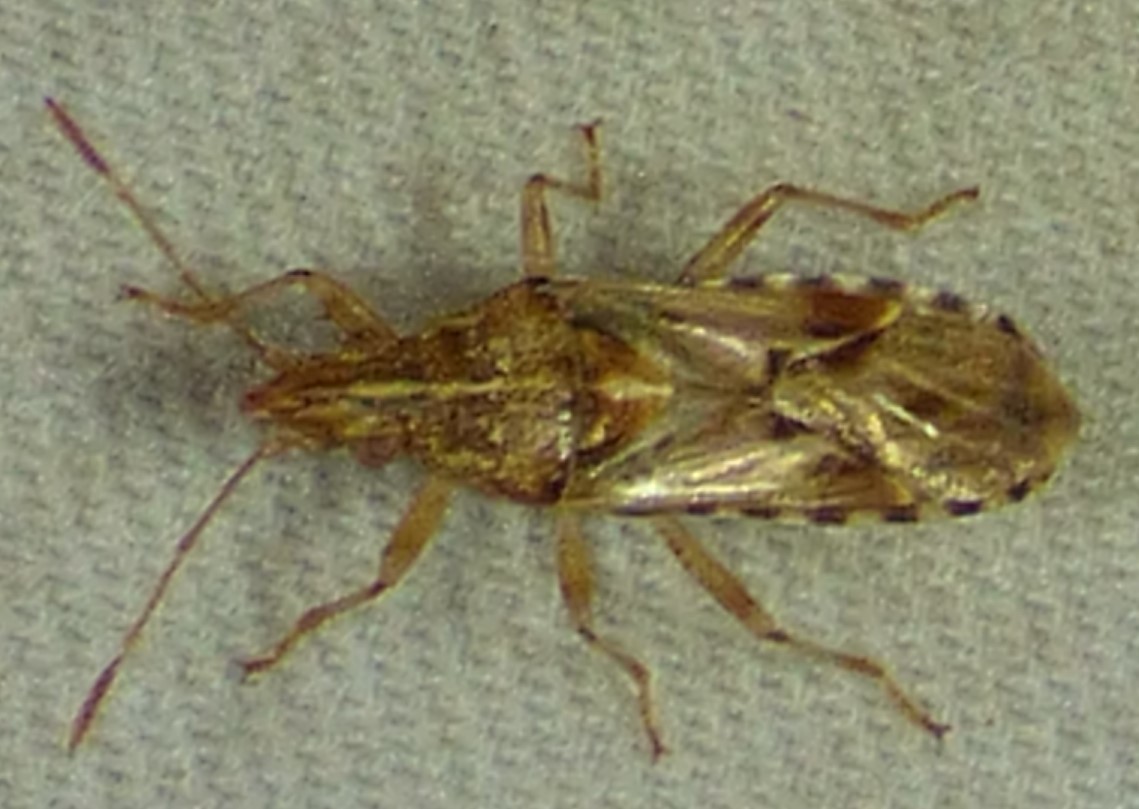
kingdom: Animalia
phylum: Arthropoda
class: Insecta
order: Hemiptera
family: Lygaeidae
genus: Belonochilus
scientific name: Belonochilus numenius
